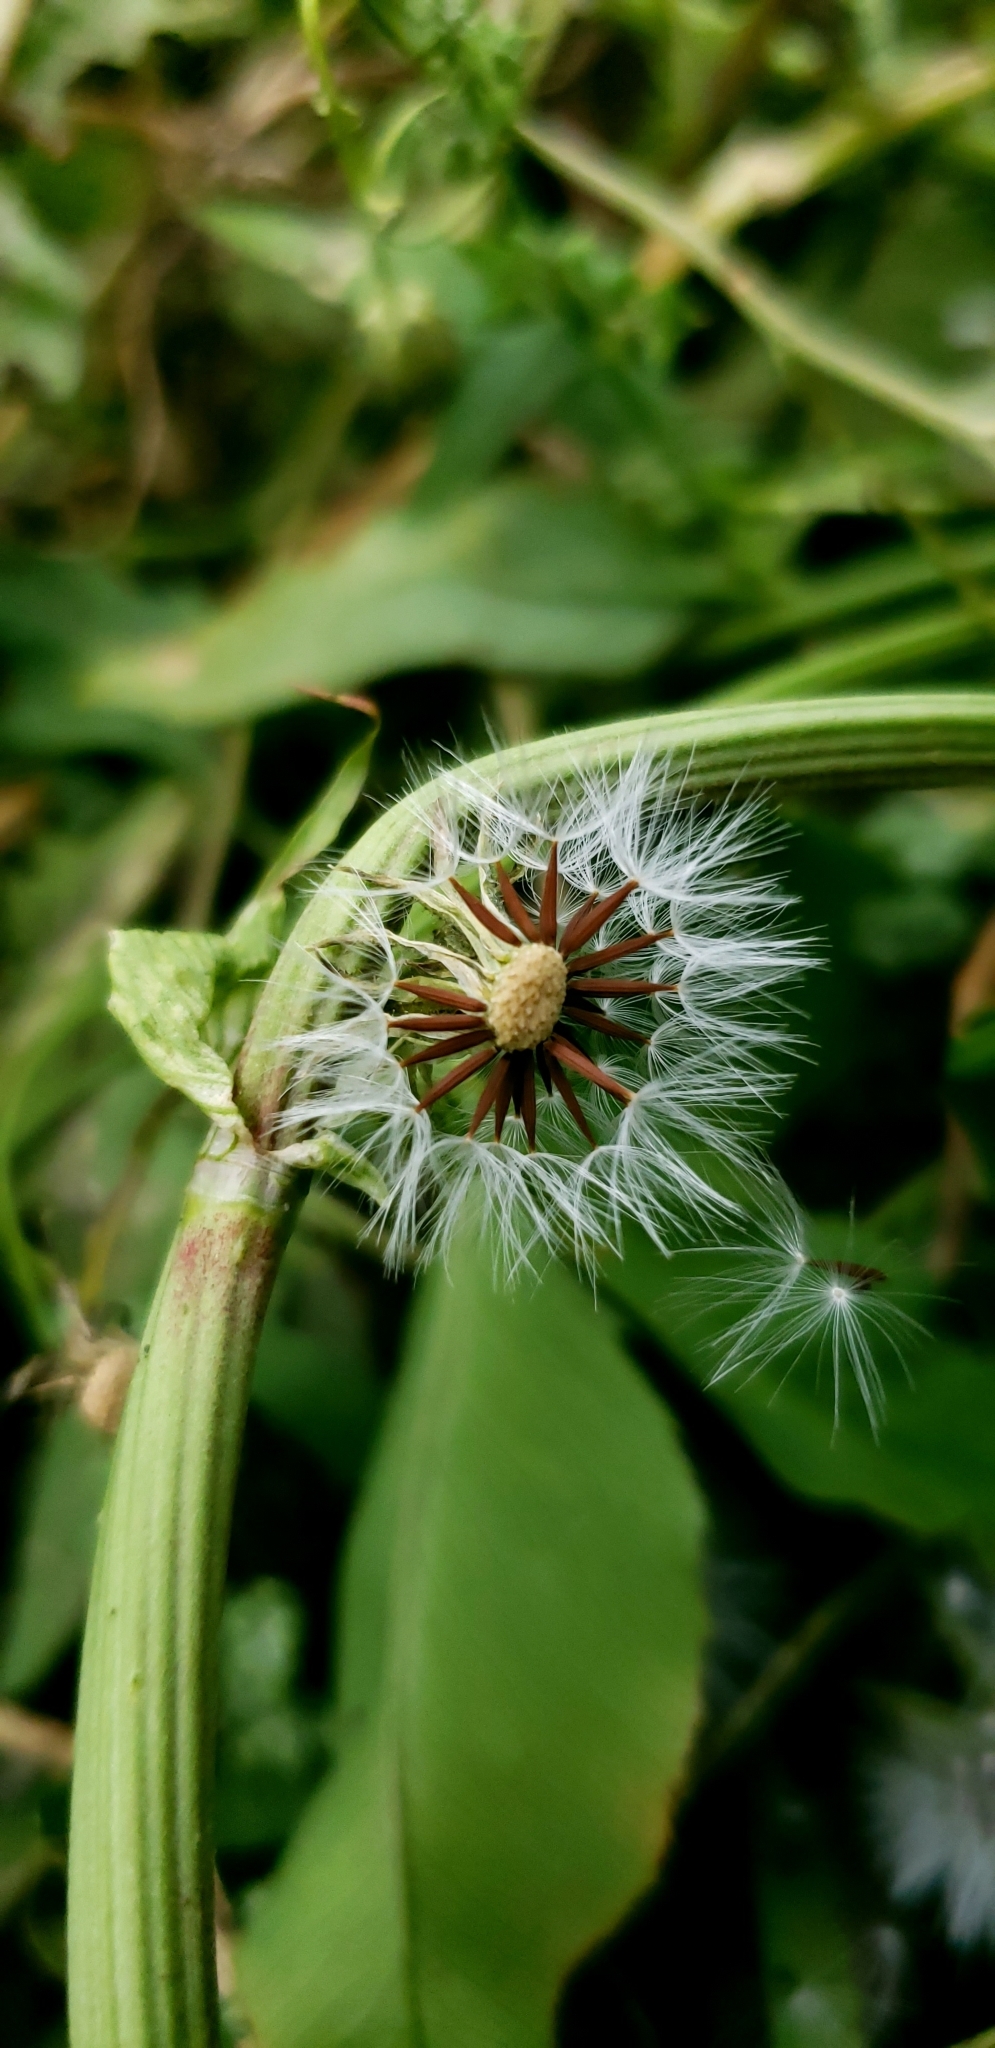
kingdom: Plantae
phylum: Tracheophyta
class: Magnoliopsida
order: Asterales
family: Asteraceae
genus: Taraxacum
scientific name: Taraxacum officinale
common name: Common dandelion
